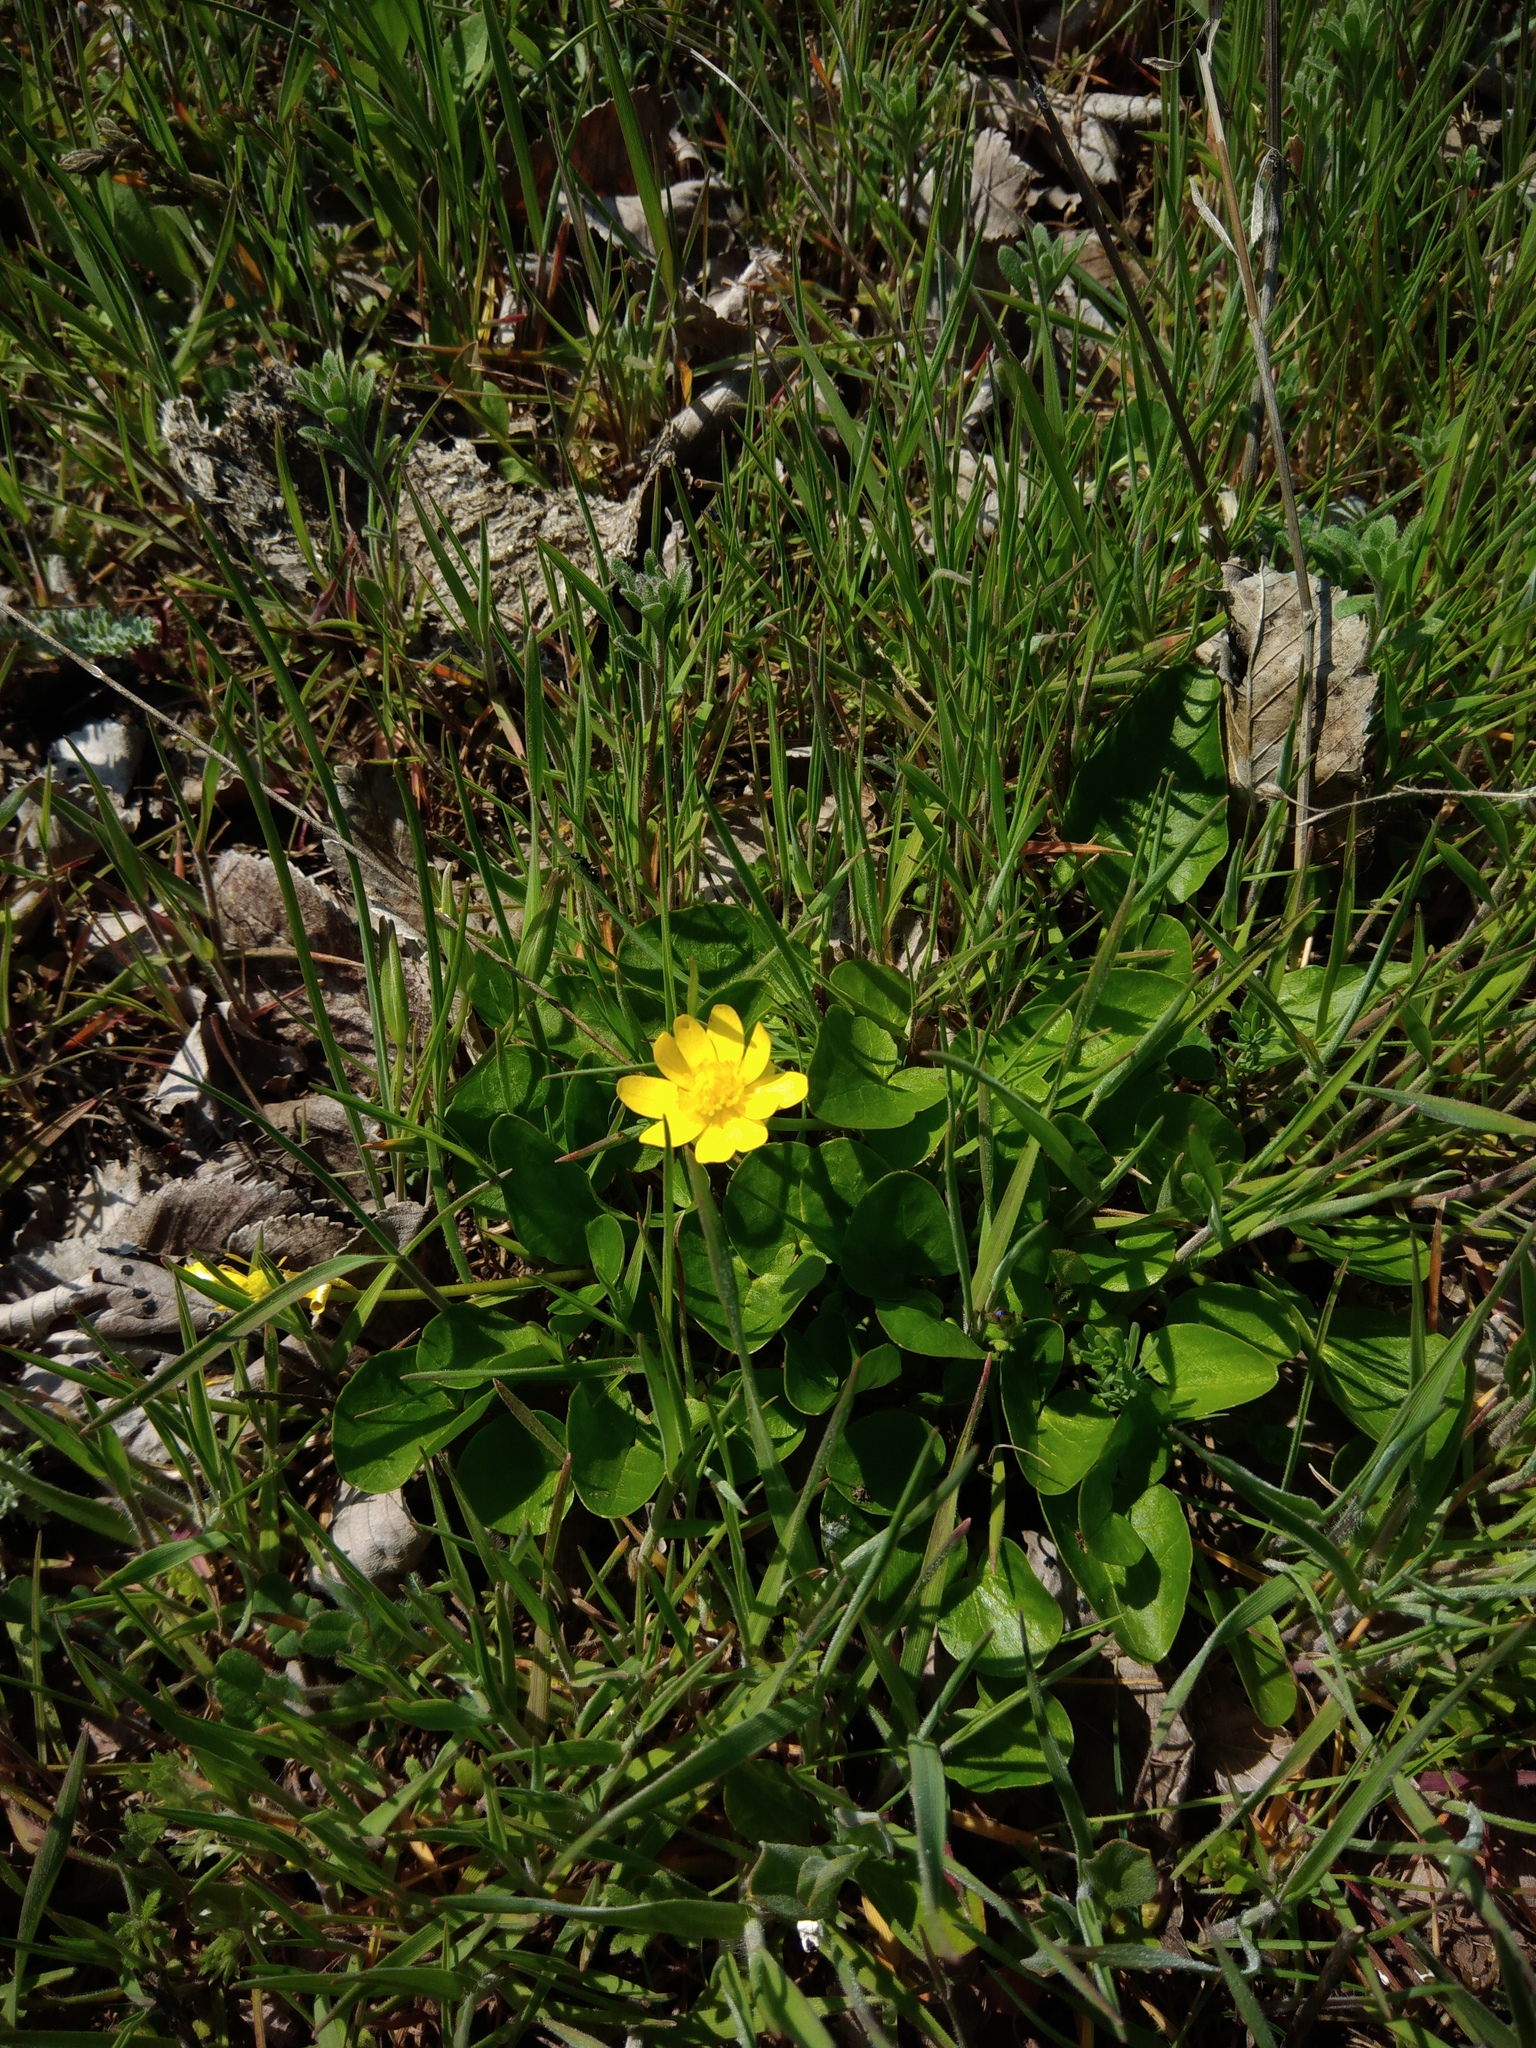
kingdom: Plantae
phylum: Tracheophyta
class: Magnoliopsida
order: Ranunculales
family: Ranunculaceae
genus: Ficaria
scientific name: Ficaria verna
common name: Lesser celandine
